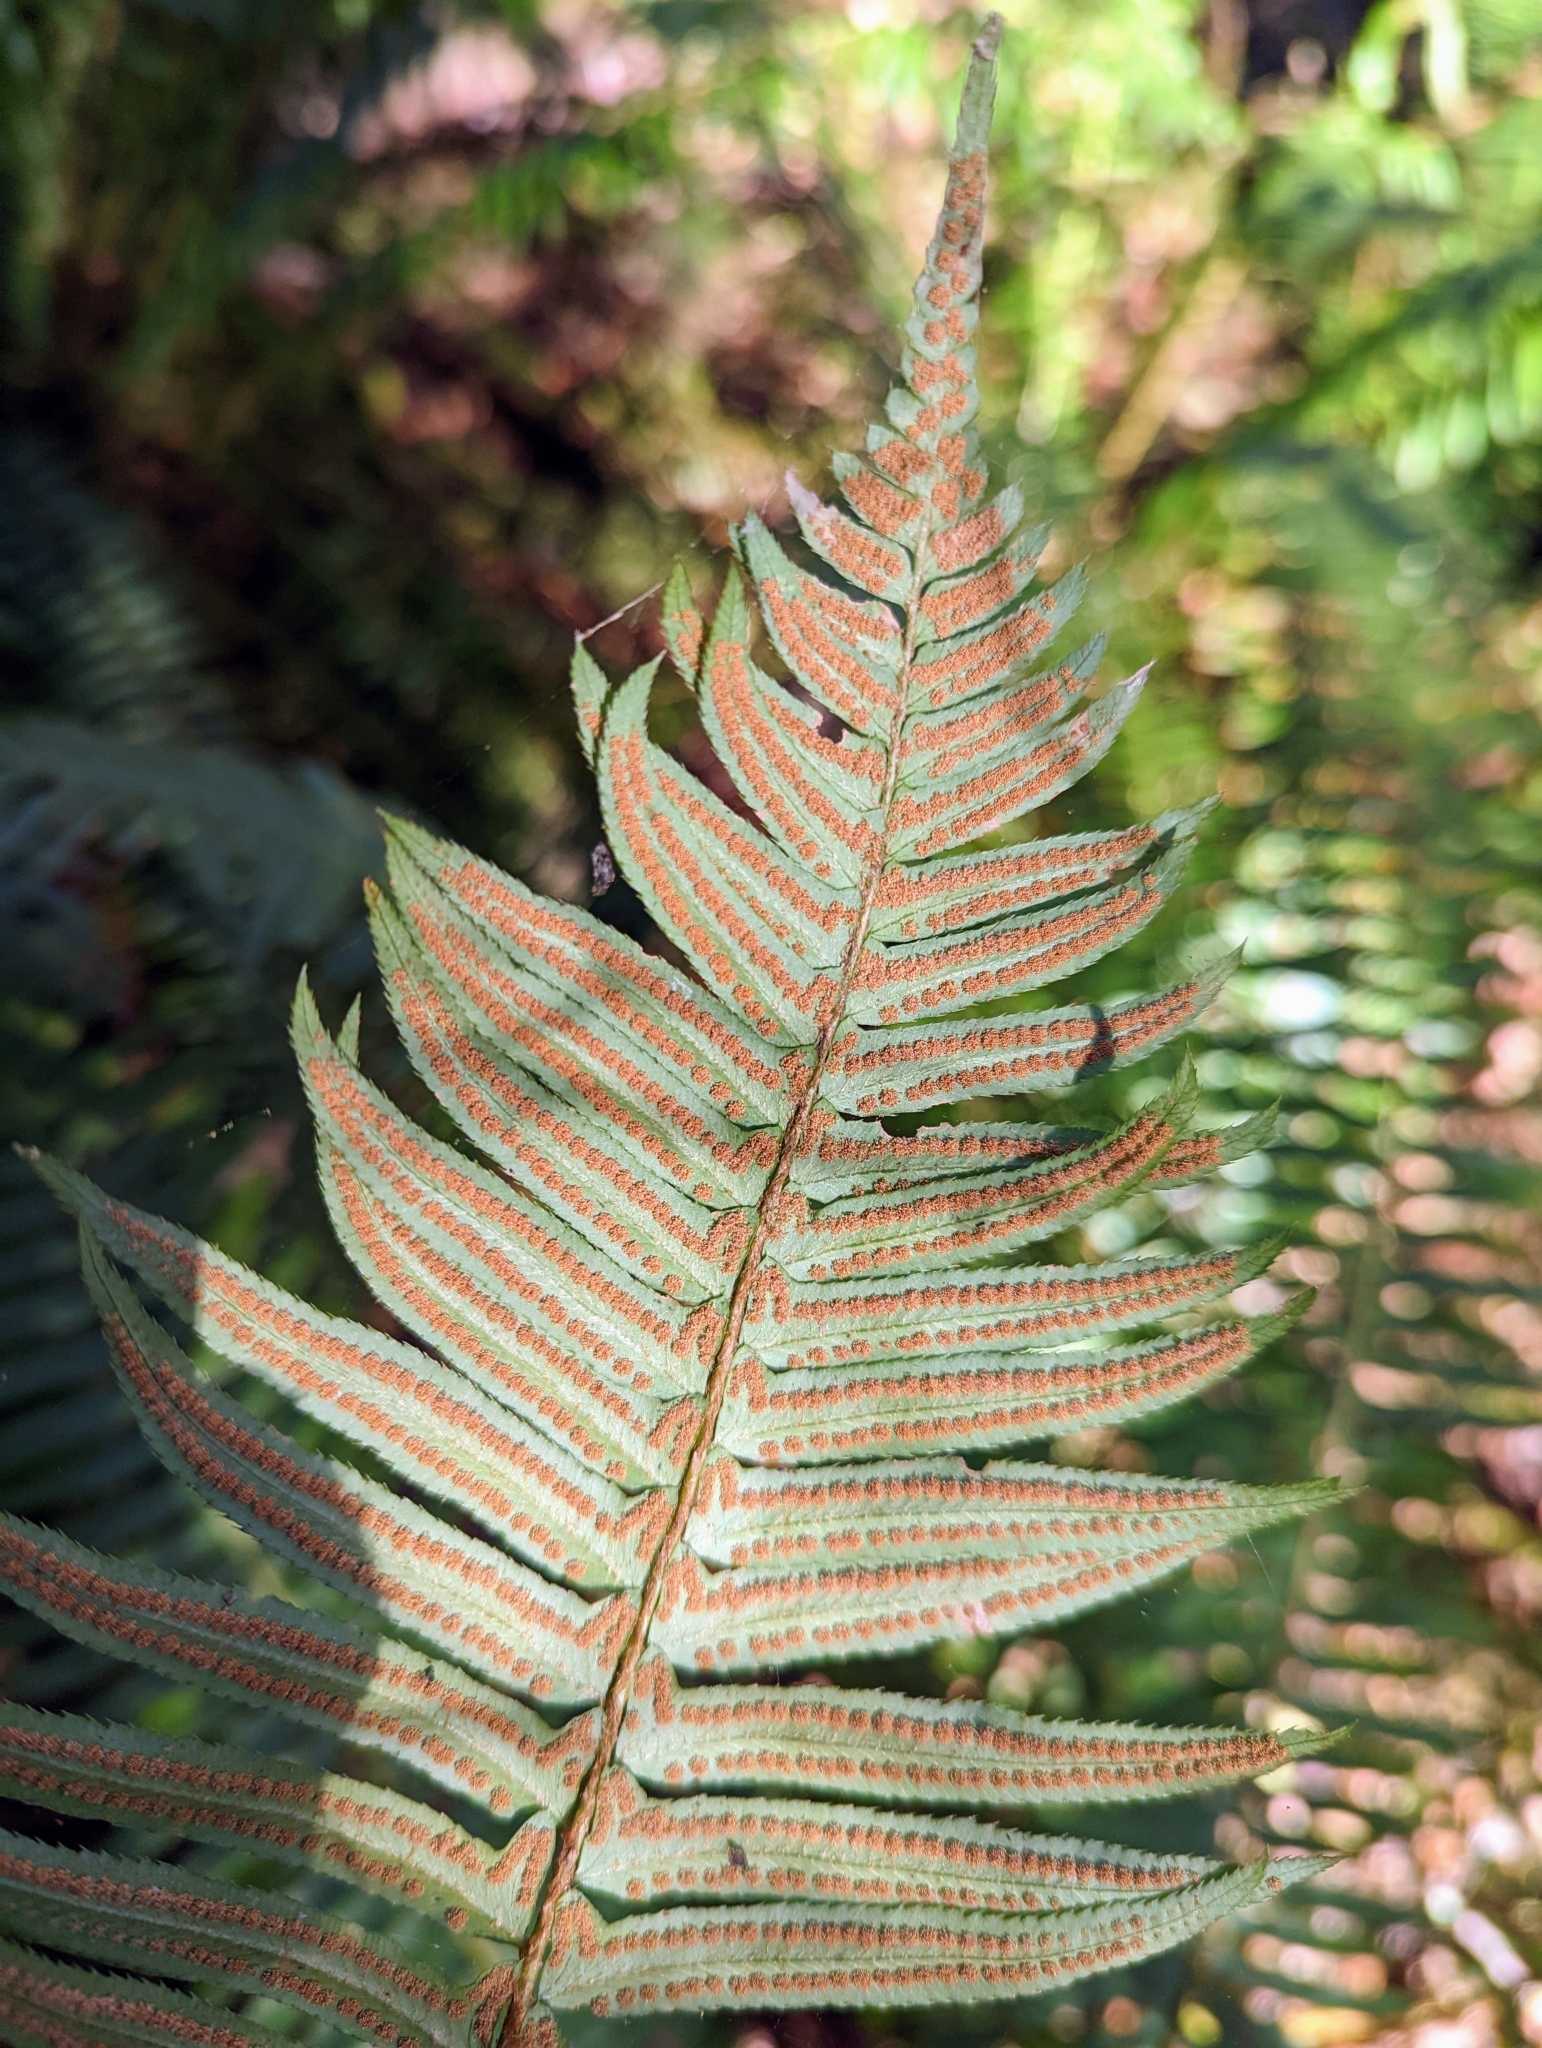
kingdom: Plantae
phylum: Tracheophyta
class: Polypodiopsida
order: Polypodiales
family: Dryopteridaceae
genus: Polystichum
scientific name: Polystichum munitum
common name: Western sword-fern
